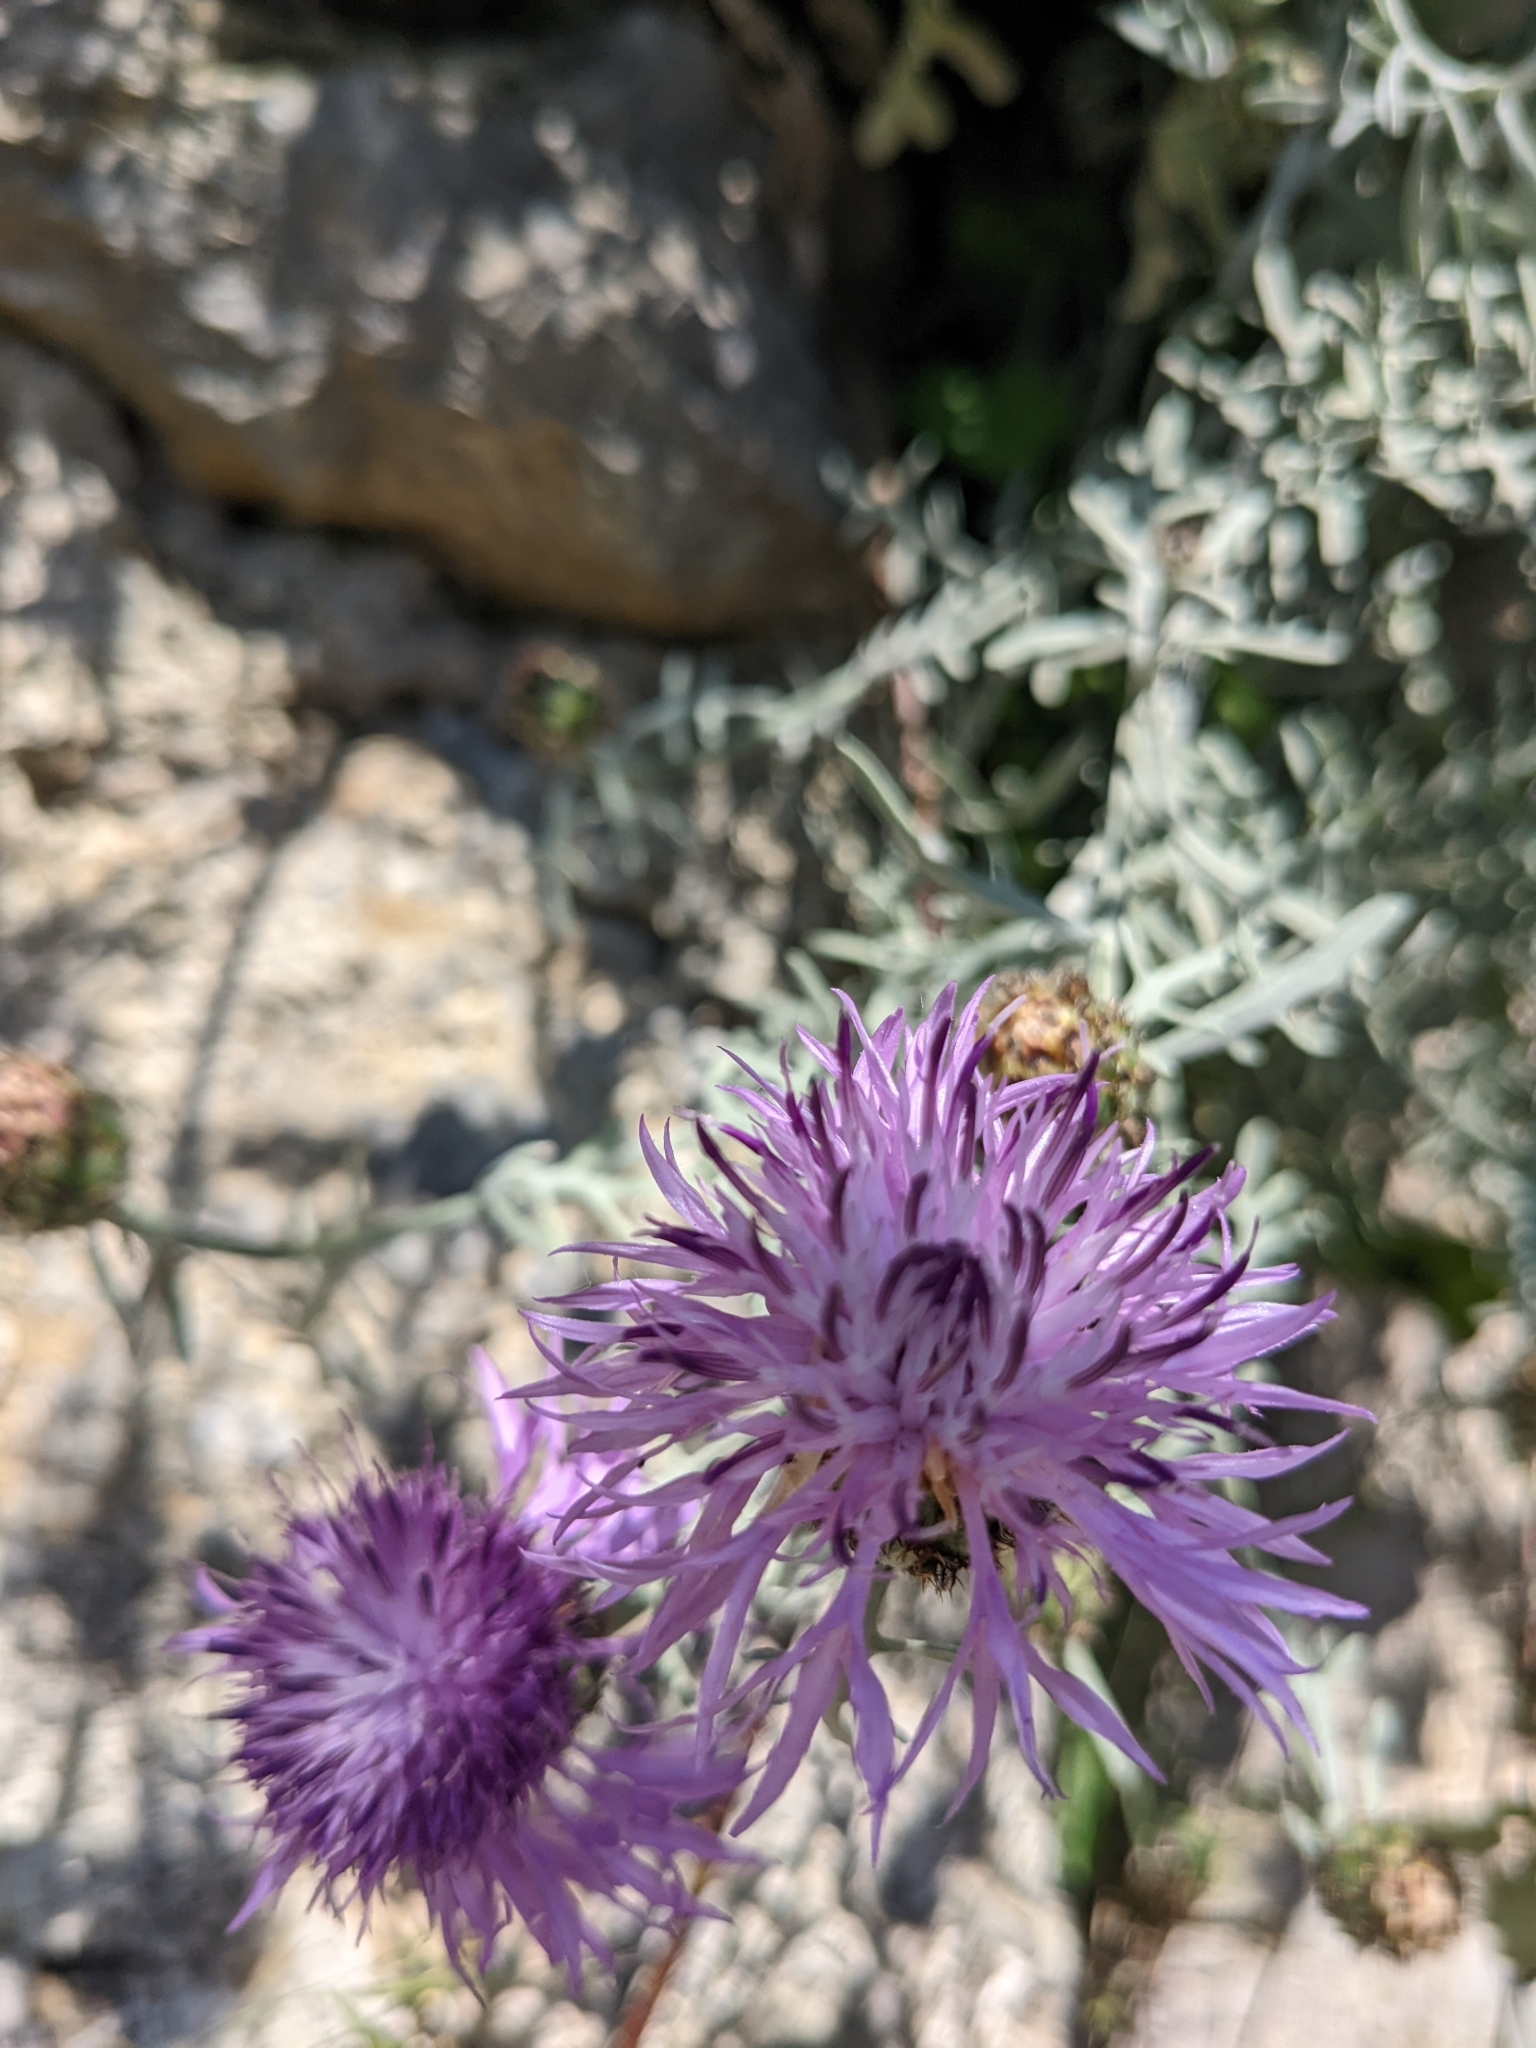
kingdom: Plantae
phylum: Tracheophyta
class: Magnoliopsida
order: Asterales
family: Asteraceae
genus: Centaurea
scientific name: Centaurea cineraria
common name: Dusty miller
